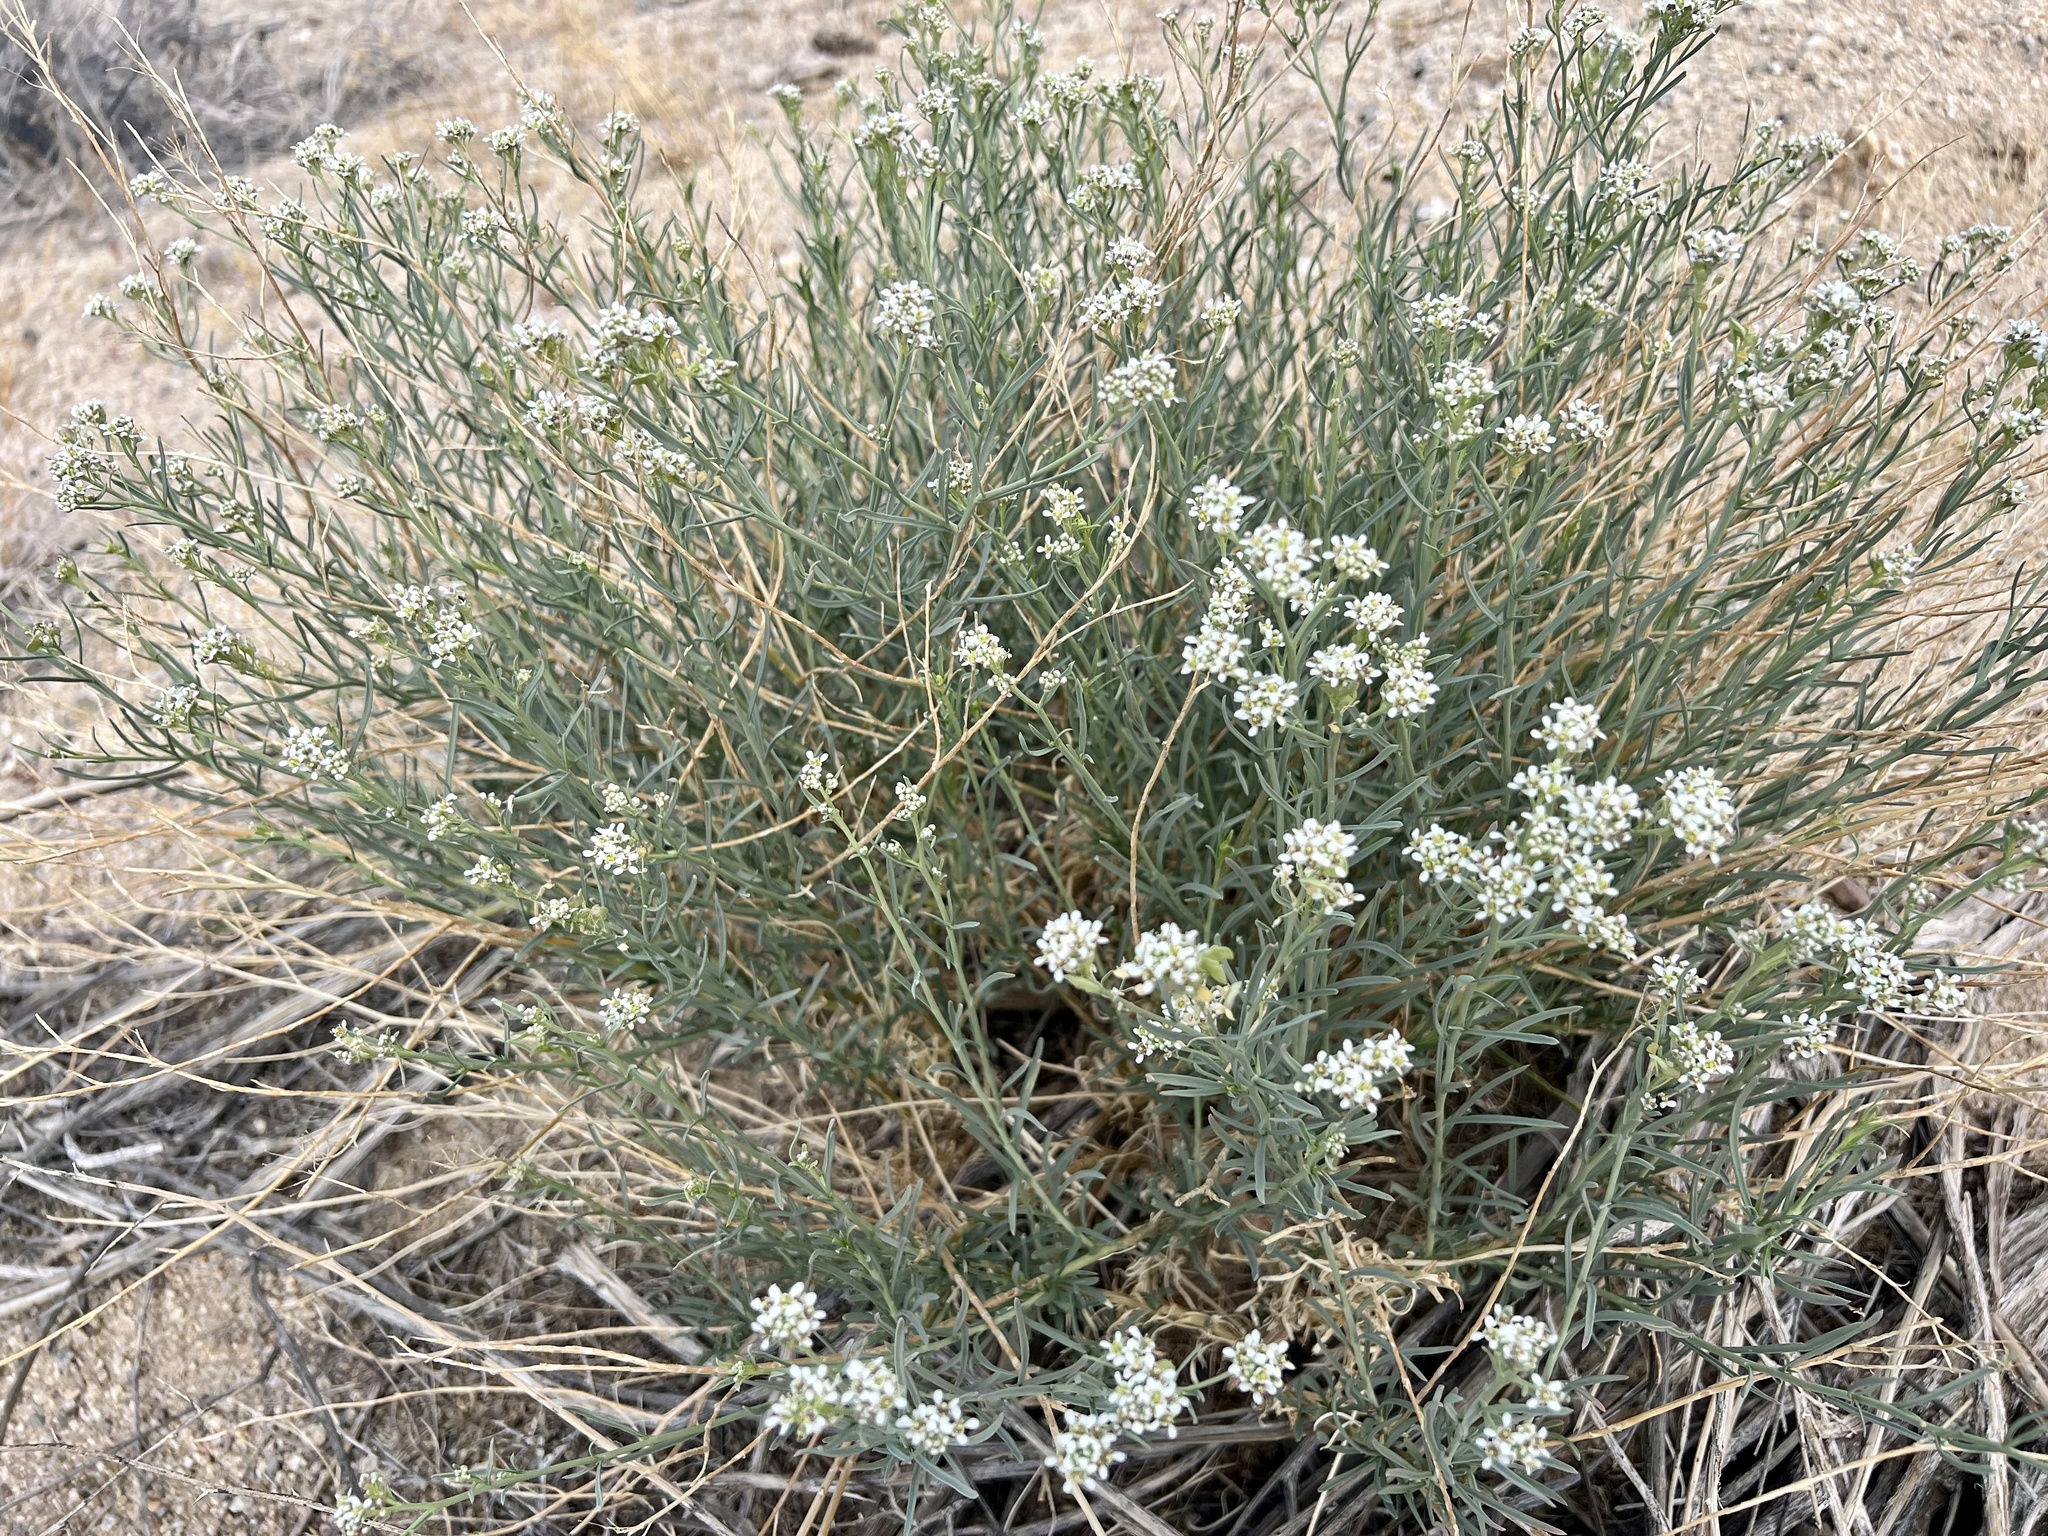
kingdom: Plantae
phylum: Tracheophyta
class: Magnoliopsida
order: Brassicales
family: Brassicaceae
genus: Lepidium
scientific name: Lepidium fremontii
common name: Fremont's pepperwort
